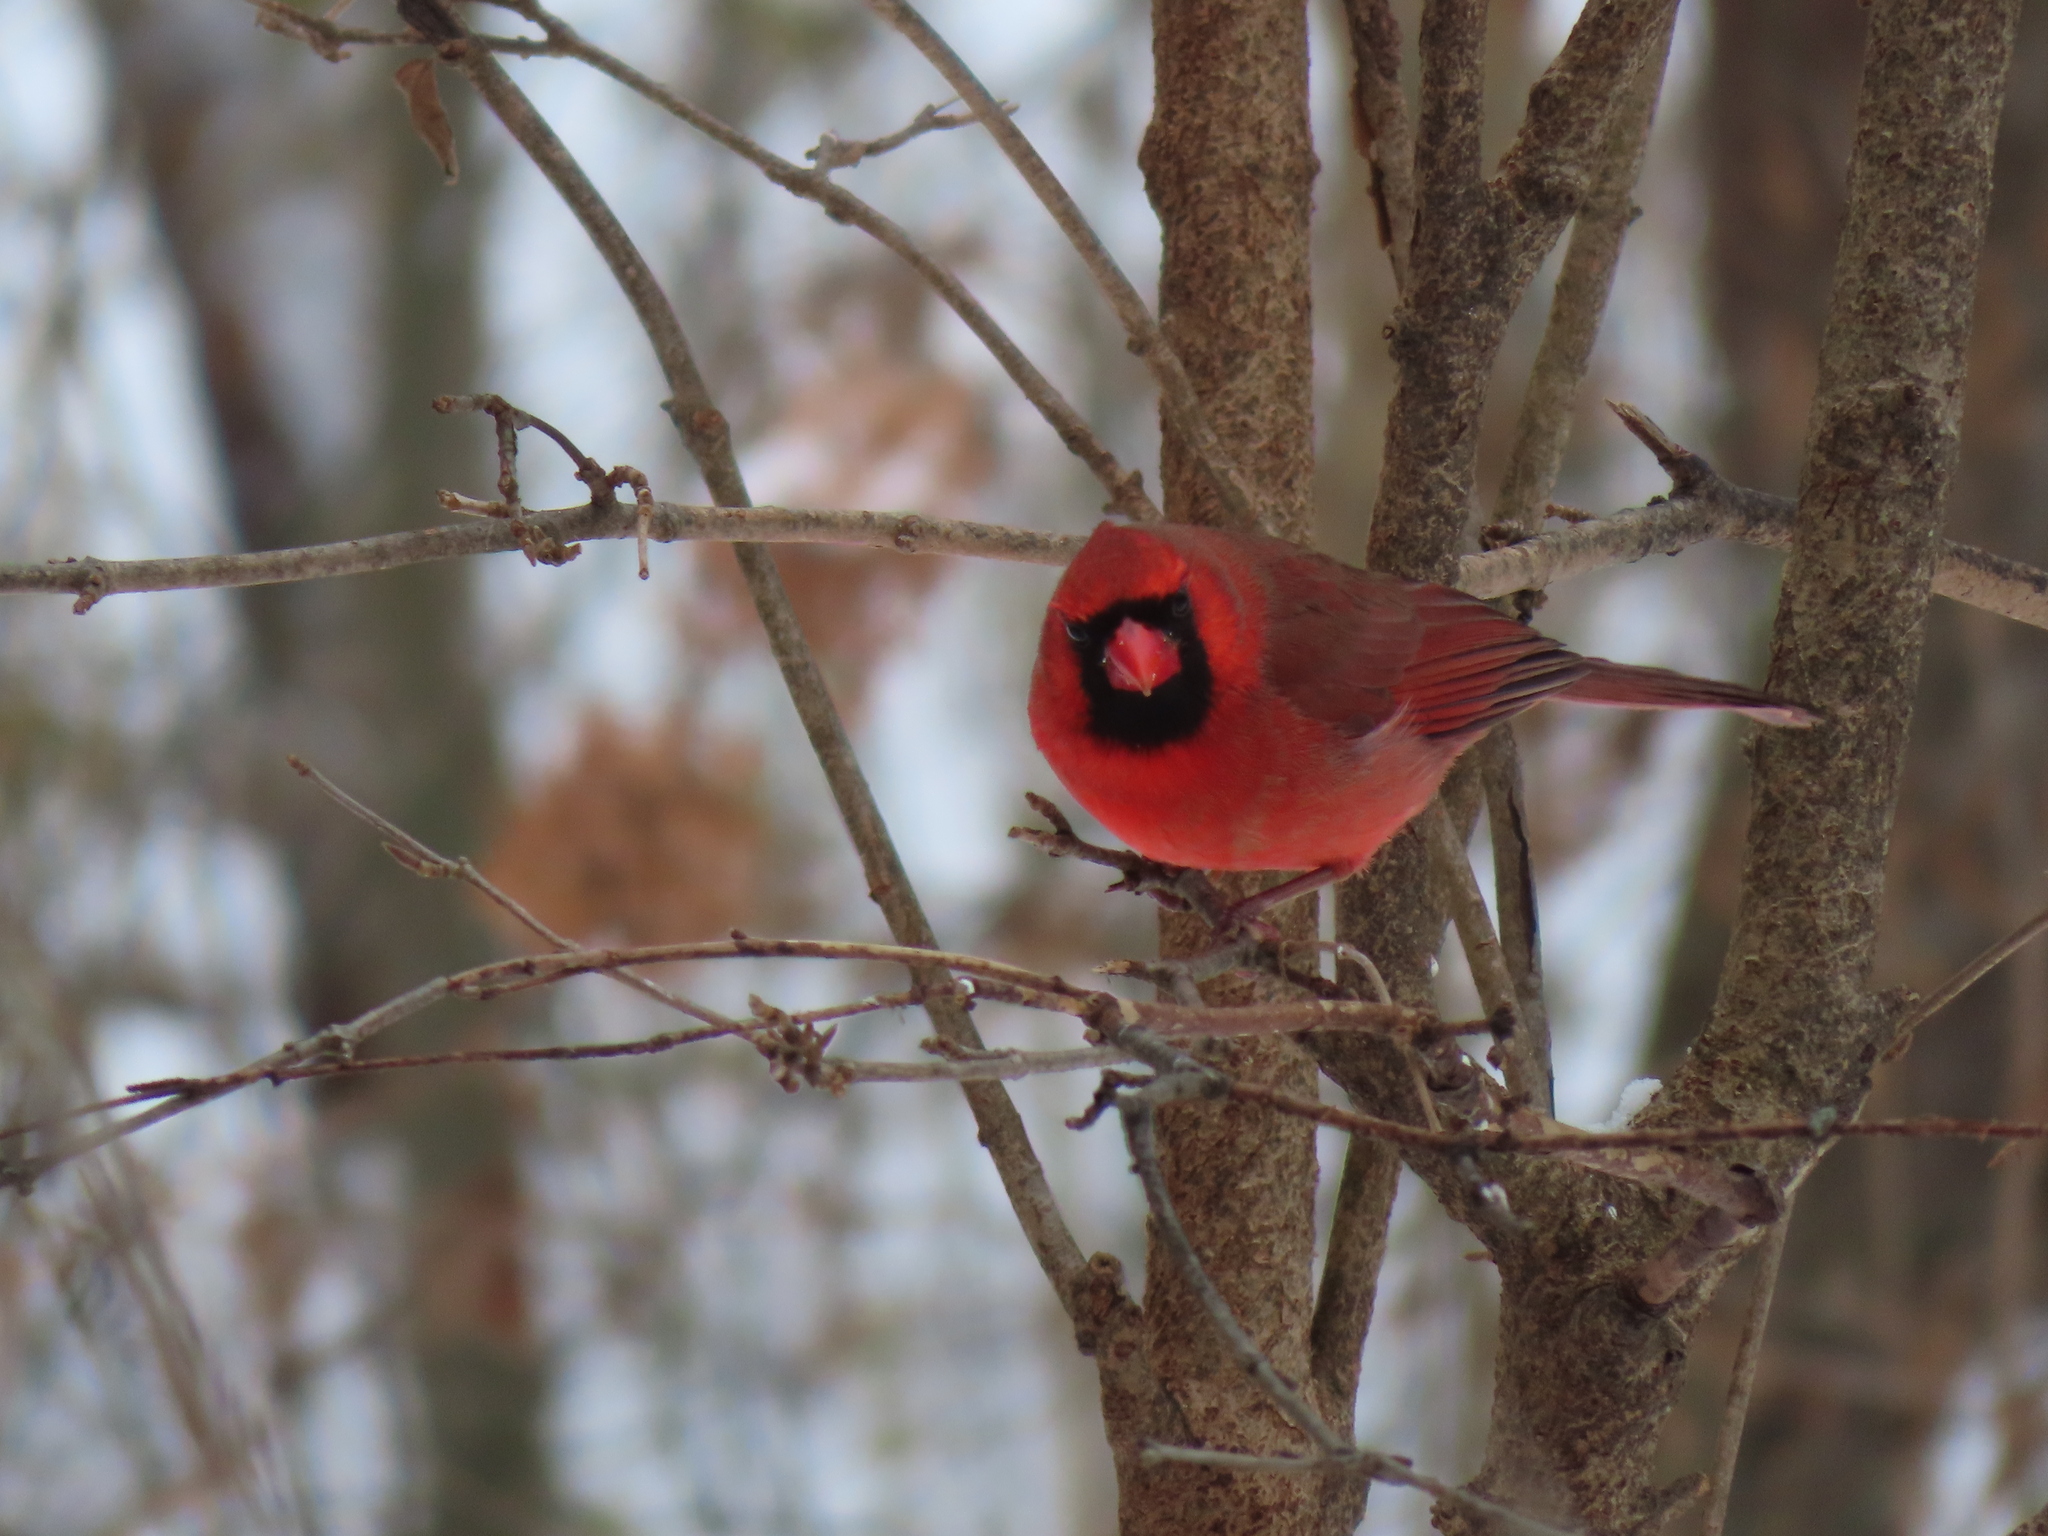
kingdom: Animalia
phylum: Chordata
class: Aves
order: Passeriformes
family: Cardinalidae
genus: Cardinalis
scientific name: Cardinalis cardinalis
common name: Northern cardinal
